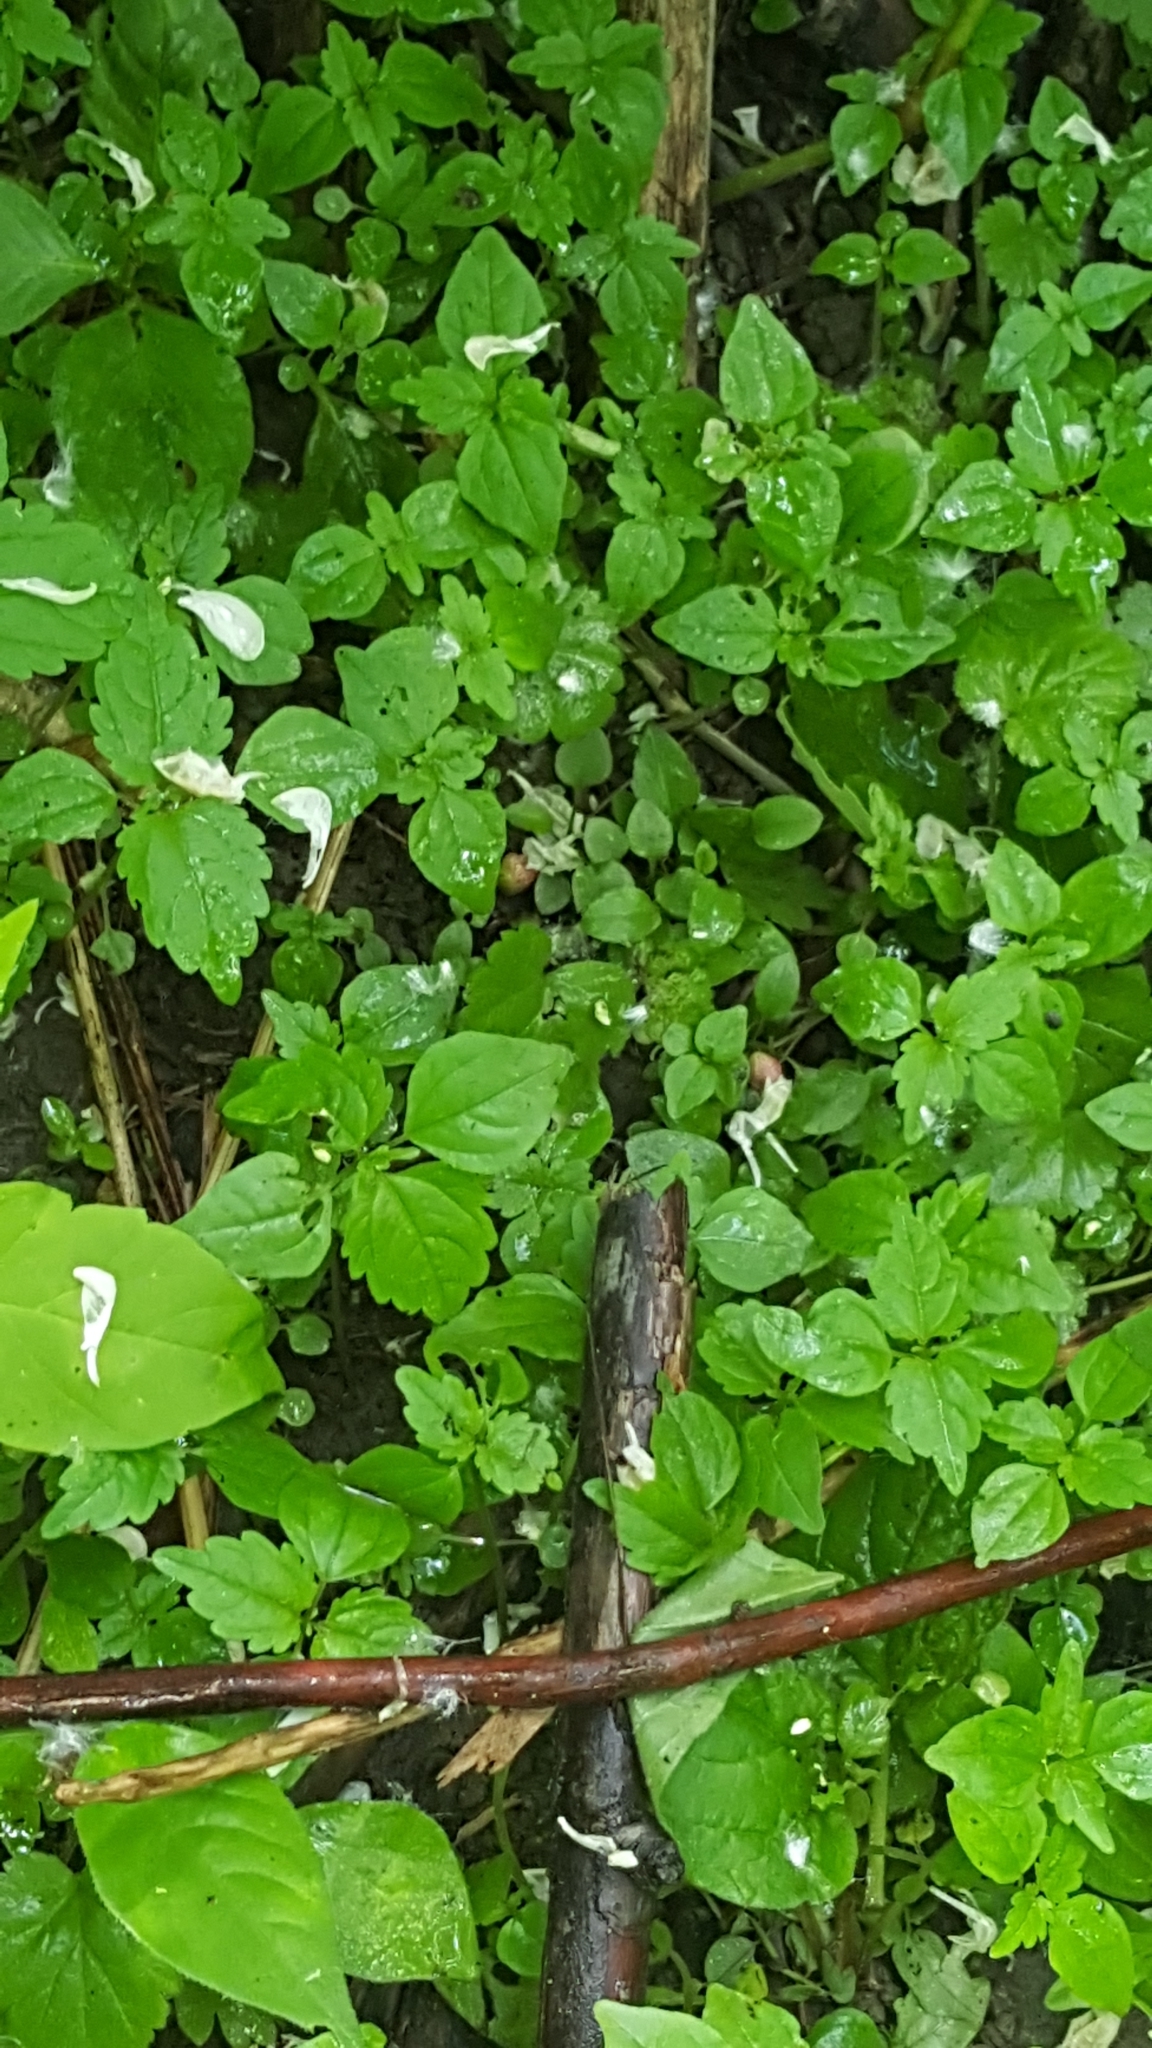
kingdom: Plantae
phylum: Tracheophyta
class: Magnoliopsida
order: Rosales
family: Urticaceae
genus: Pilea
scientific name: Pilea pumila
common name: Clearweed
